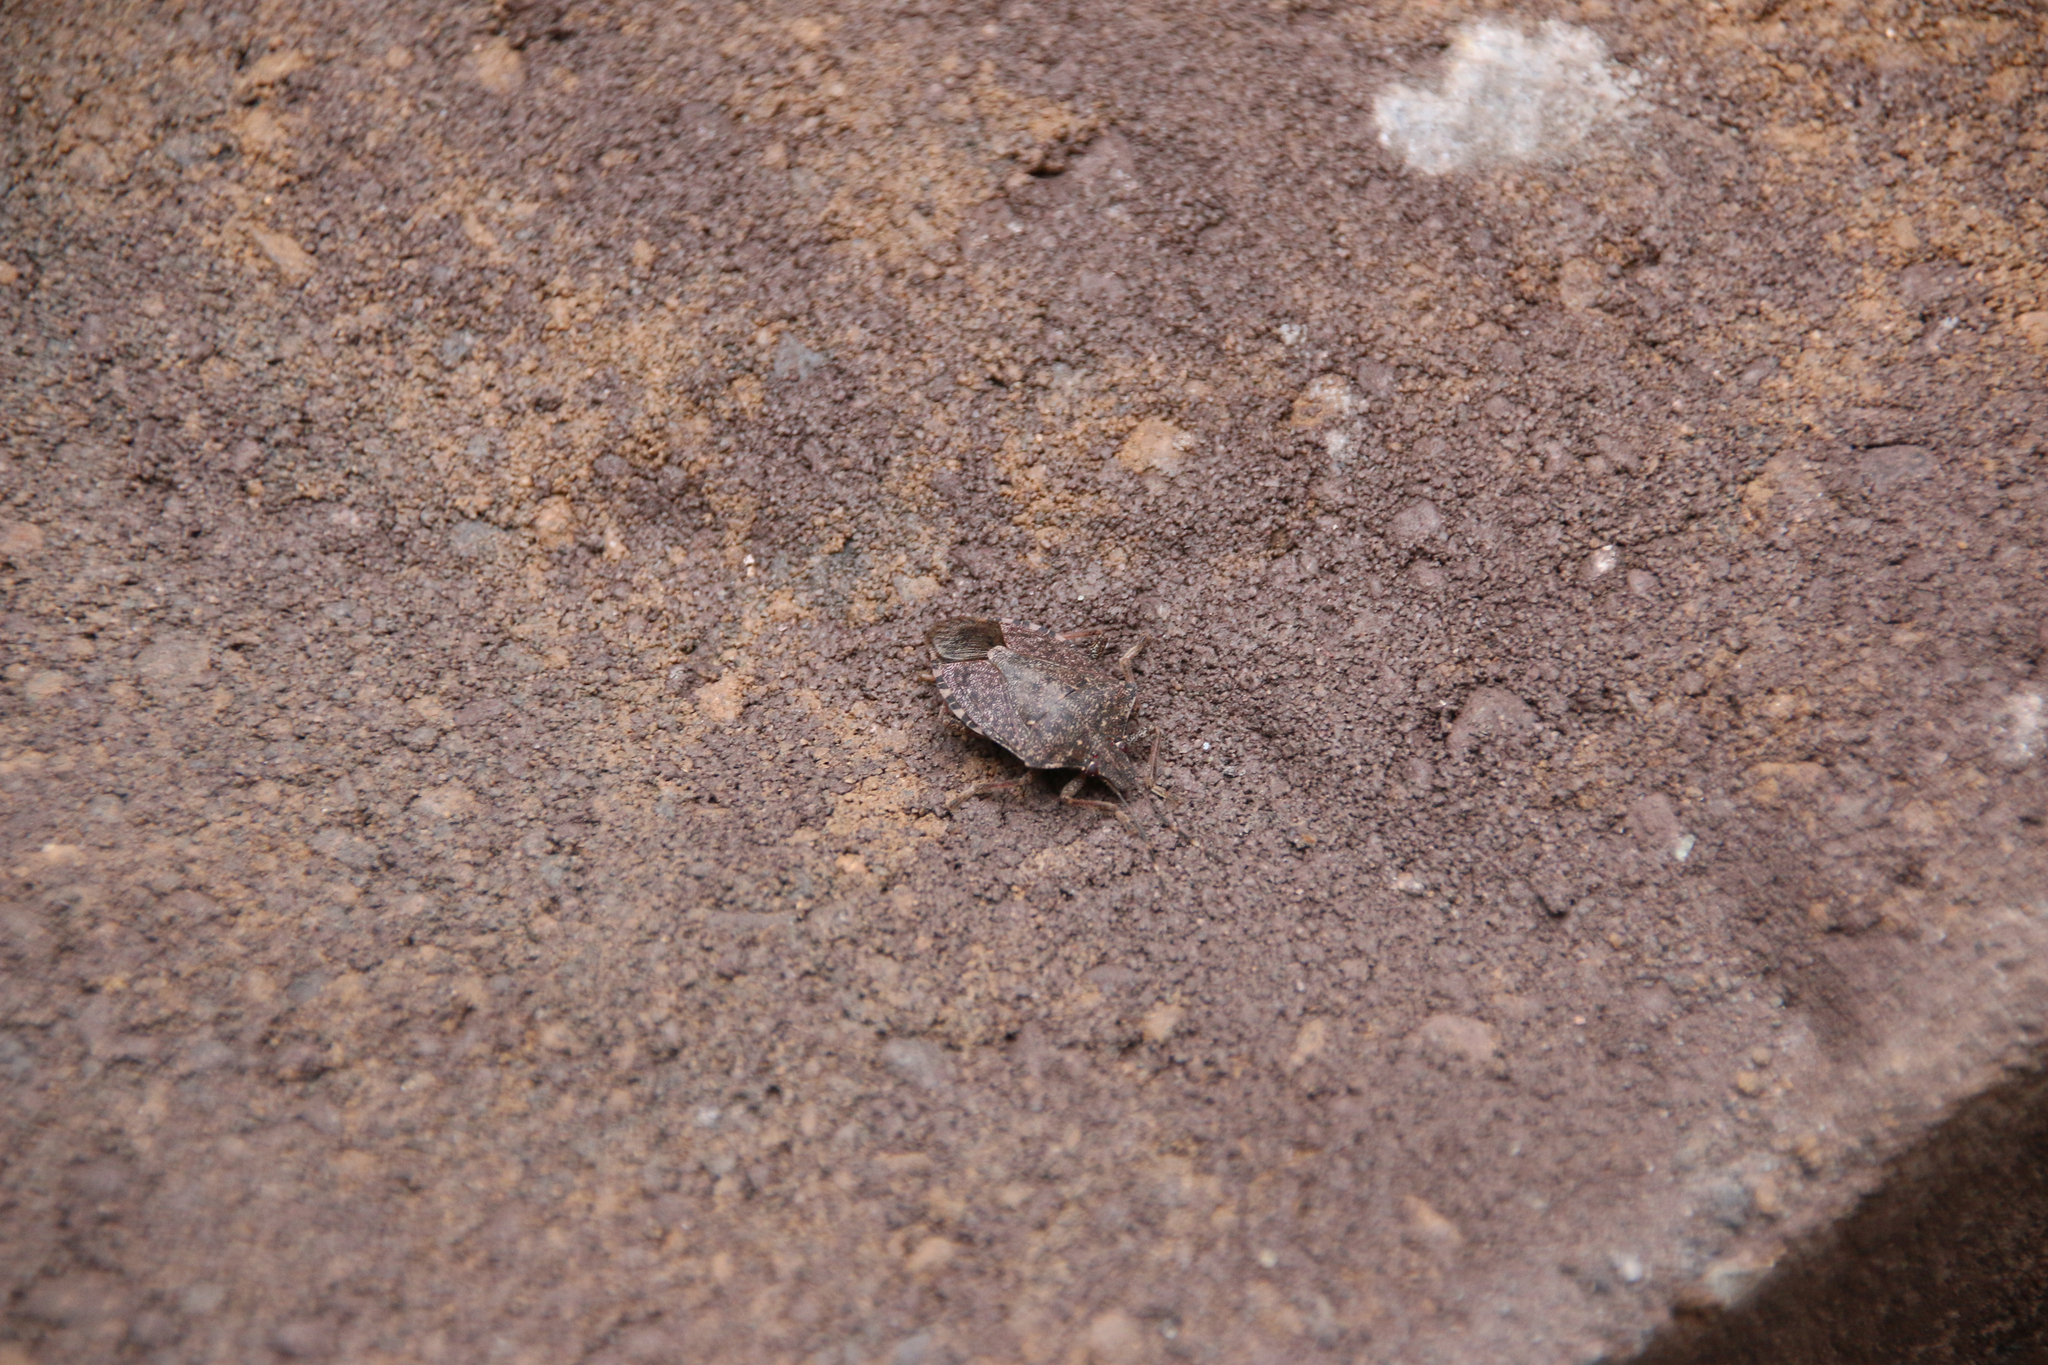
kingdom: Animalia
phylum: Arthropoda
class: Insecta
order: Hemiptera
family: Pentatomidae
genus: Halyomorpha
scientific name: Halyomorpha halys
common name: Brown marmorated stink bug
